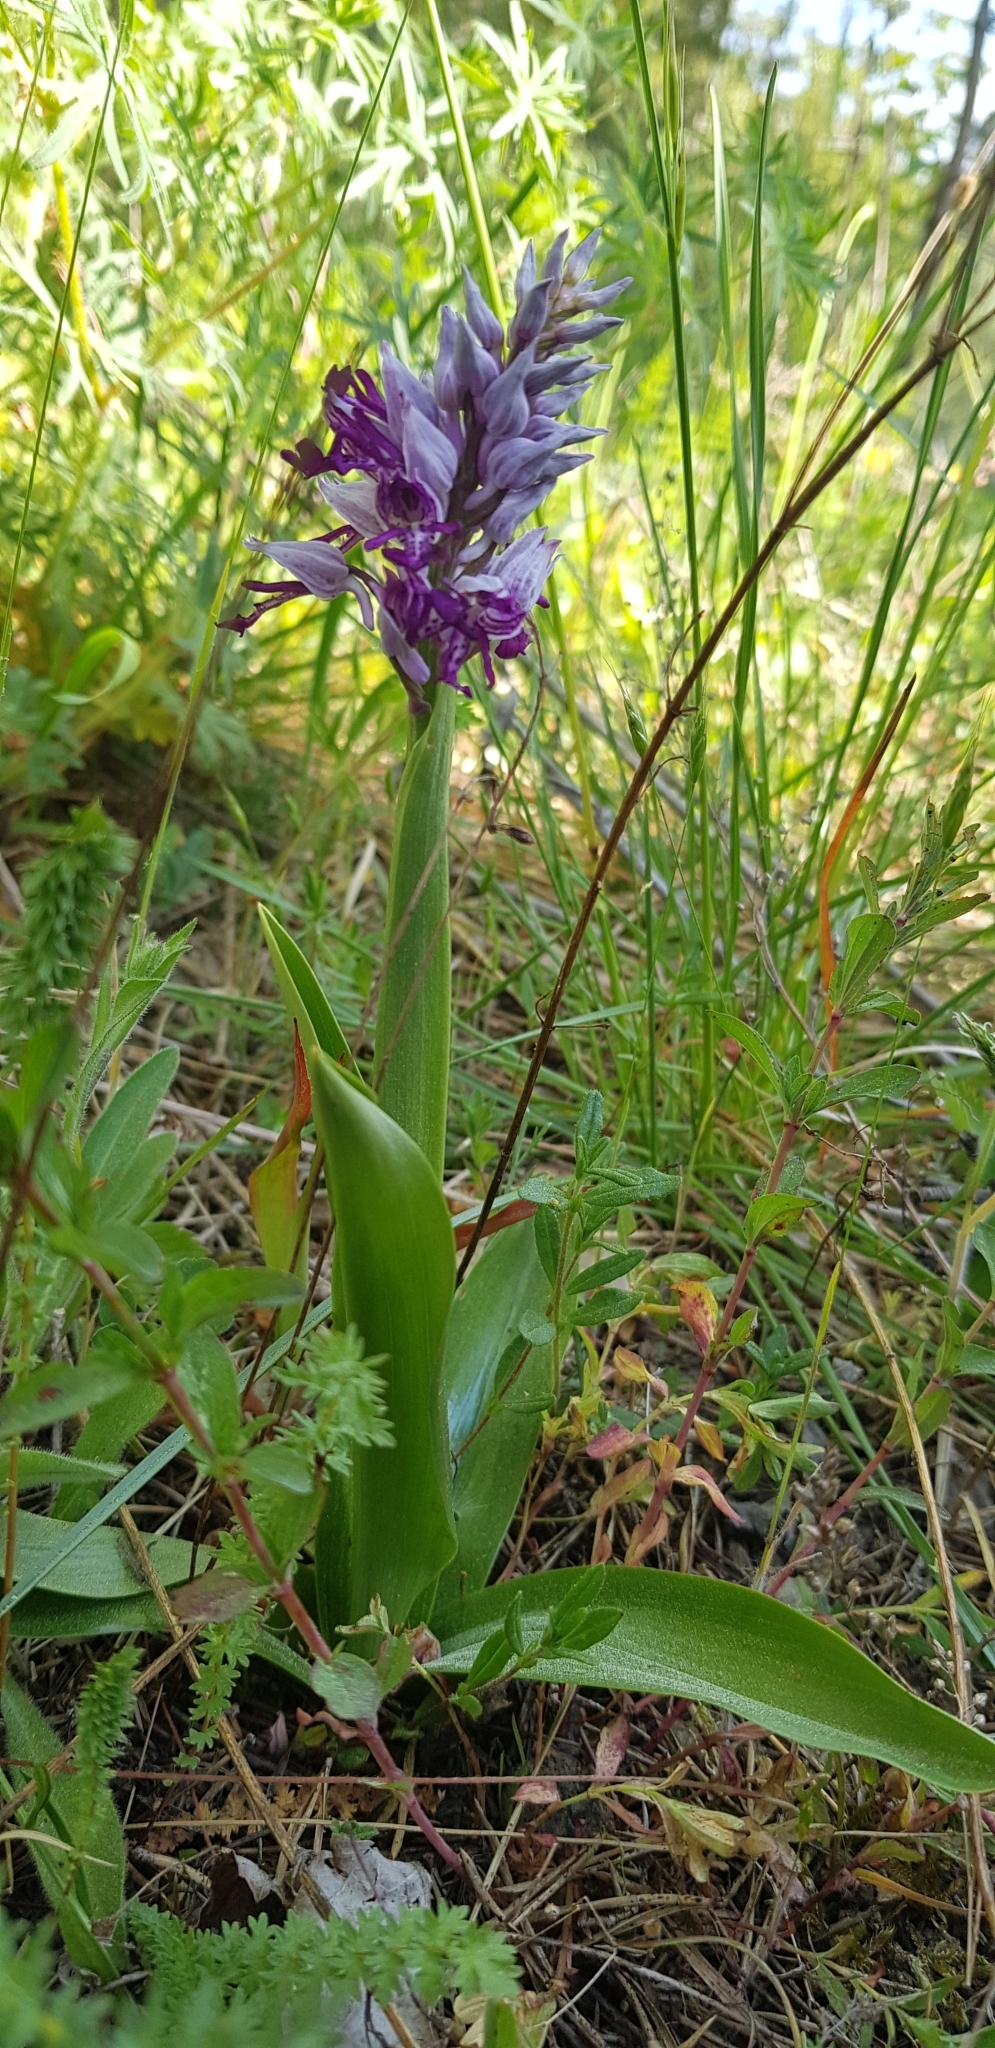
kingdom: Plantae
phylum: Tracheophyta
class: Liliopsida
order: Asparagales
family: Orchidaceae
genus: Orchis
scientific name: Orchis militaris
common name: Military orchid
